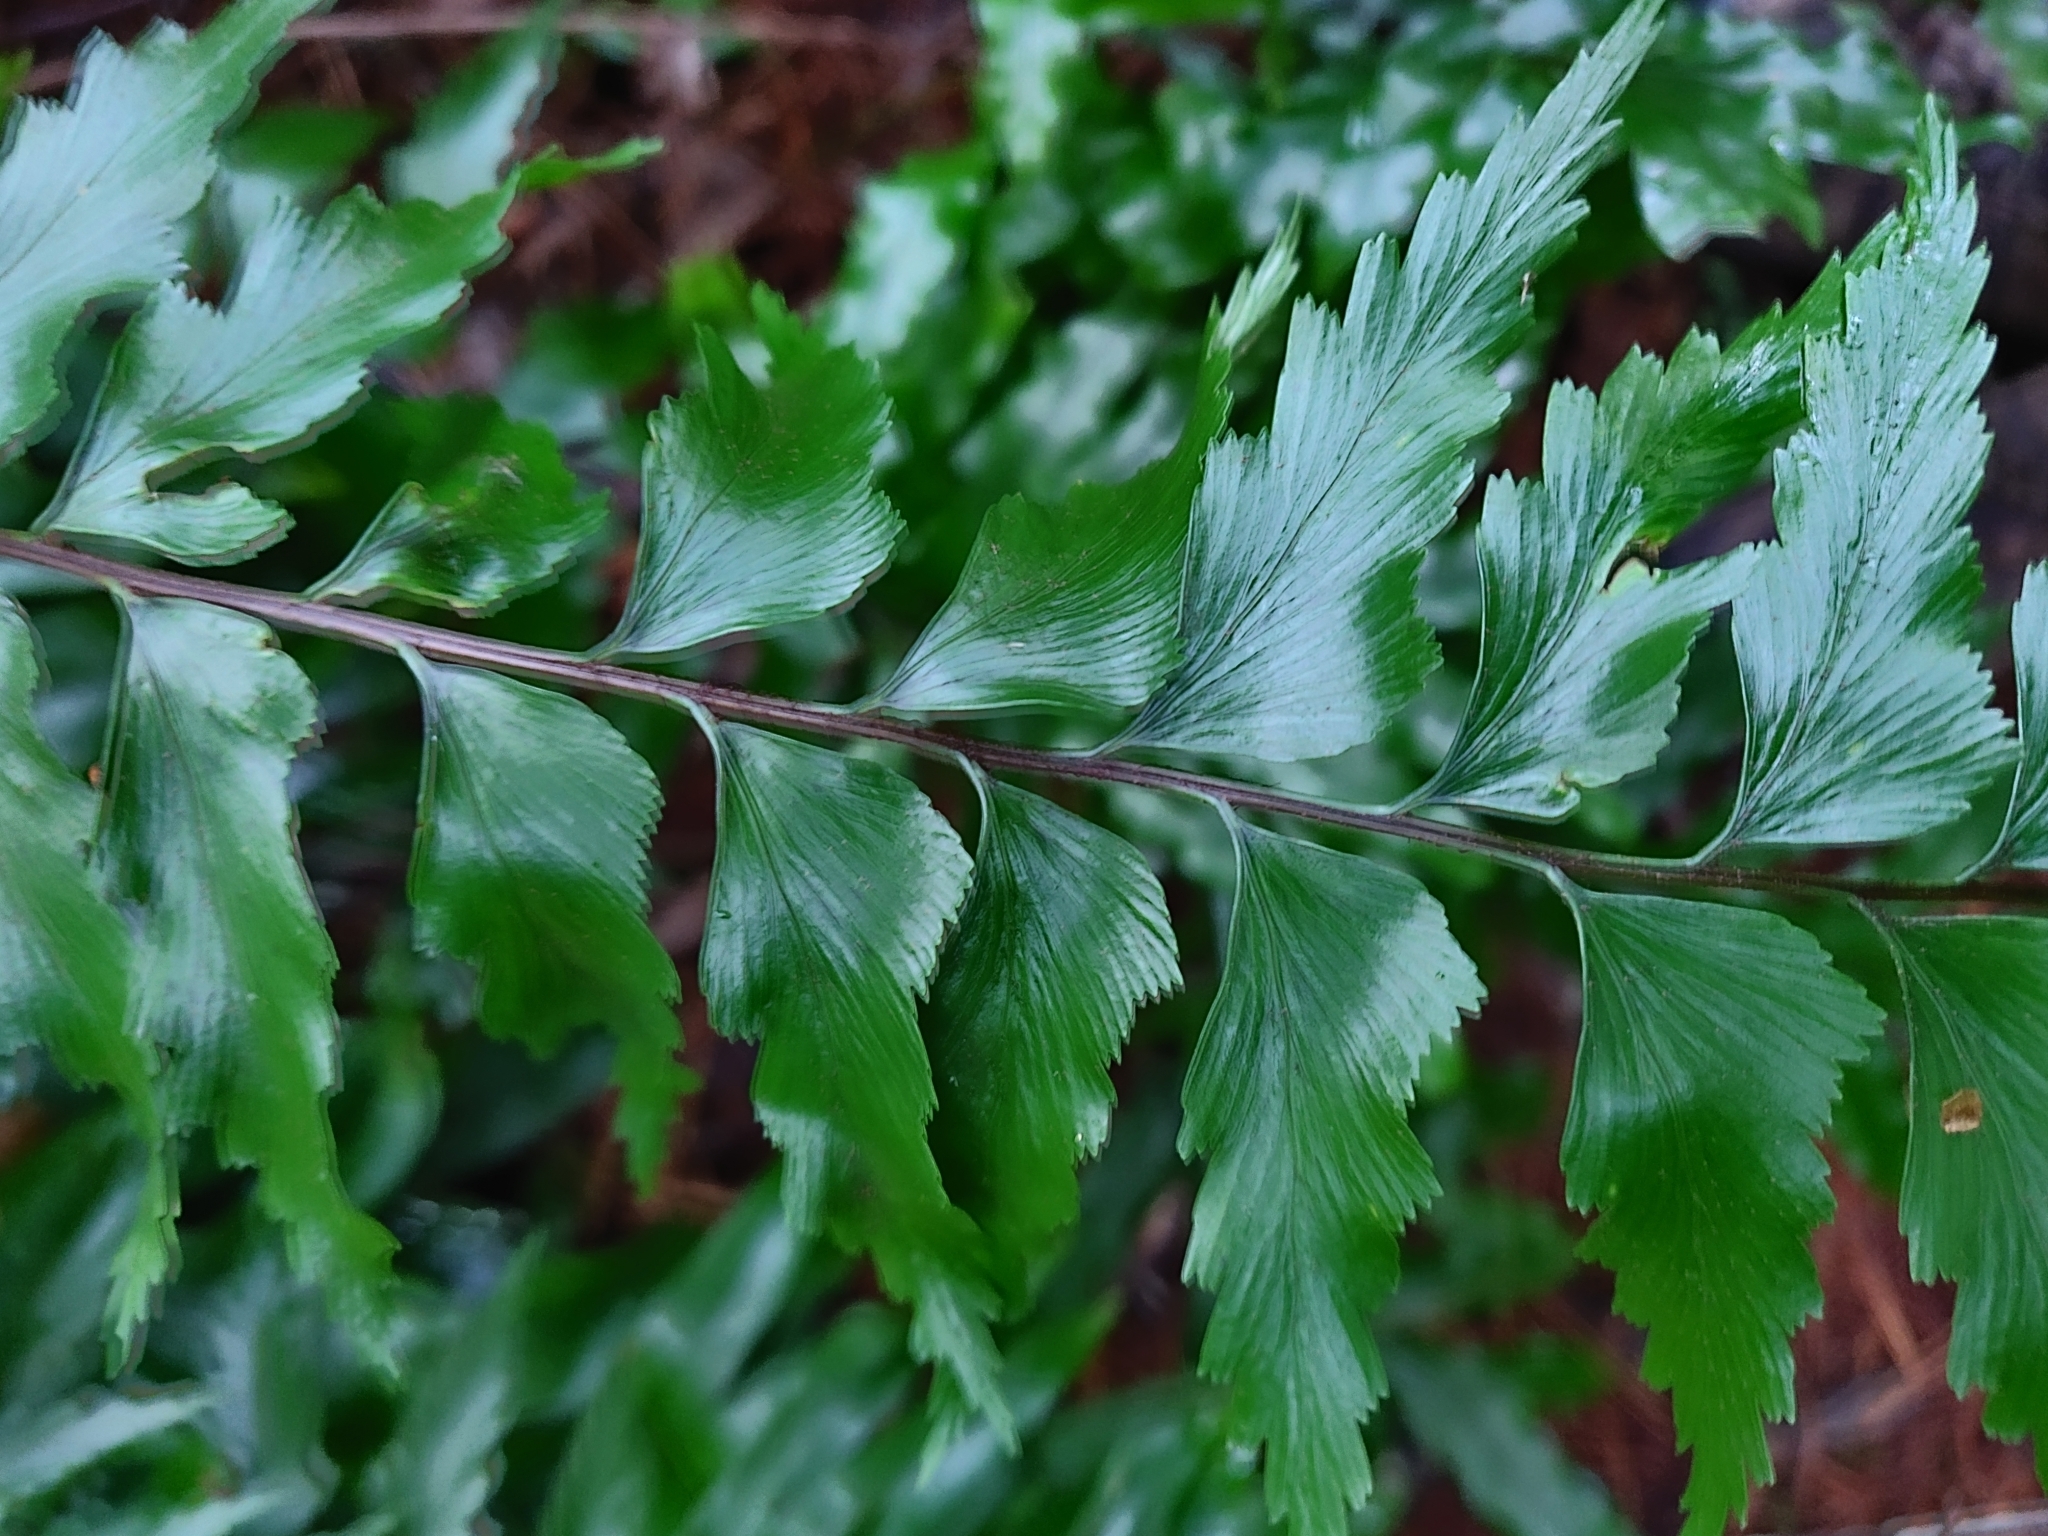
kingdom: Plantae
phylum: Tracheophyta
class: Polypodiopsida
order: Polypodiales
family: Aspleniaceae
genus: Asplenium
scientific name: Asplenium polyodon
